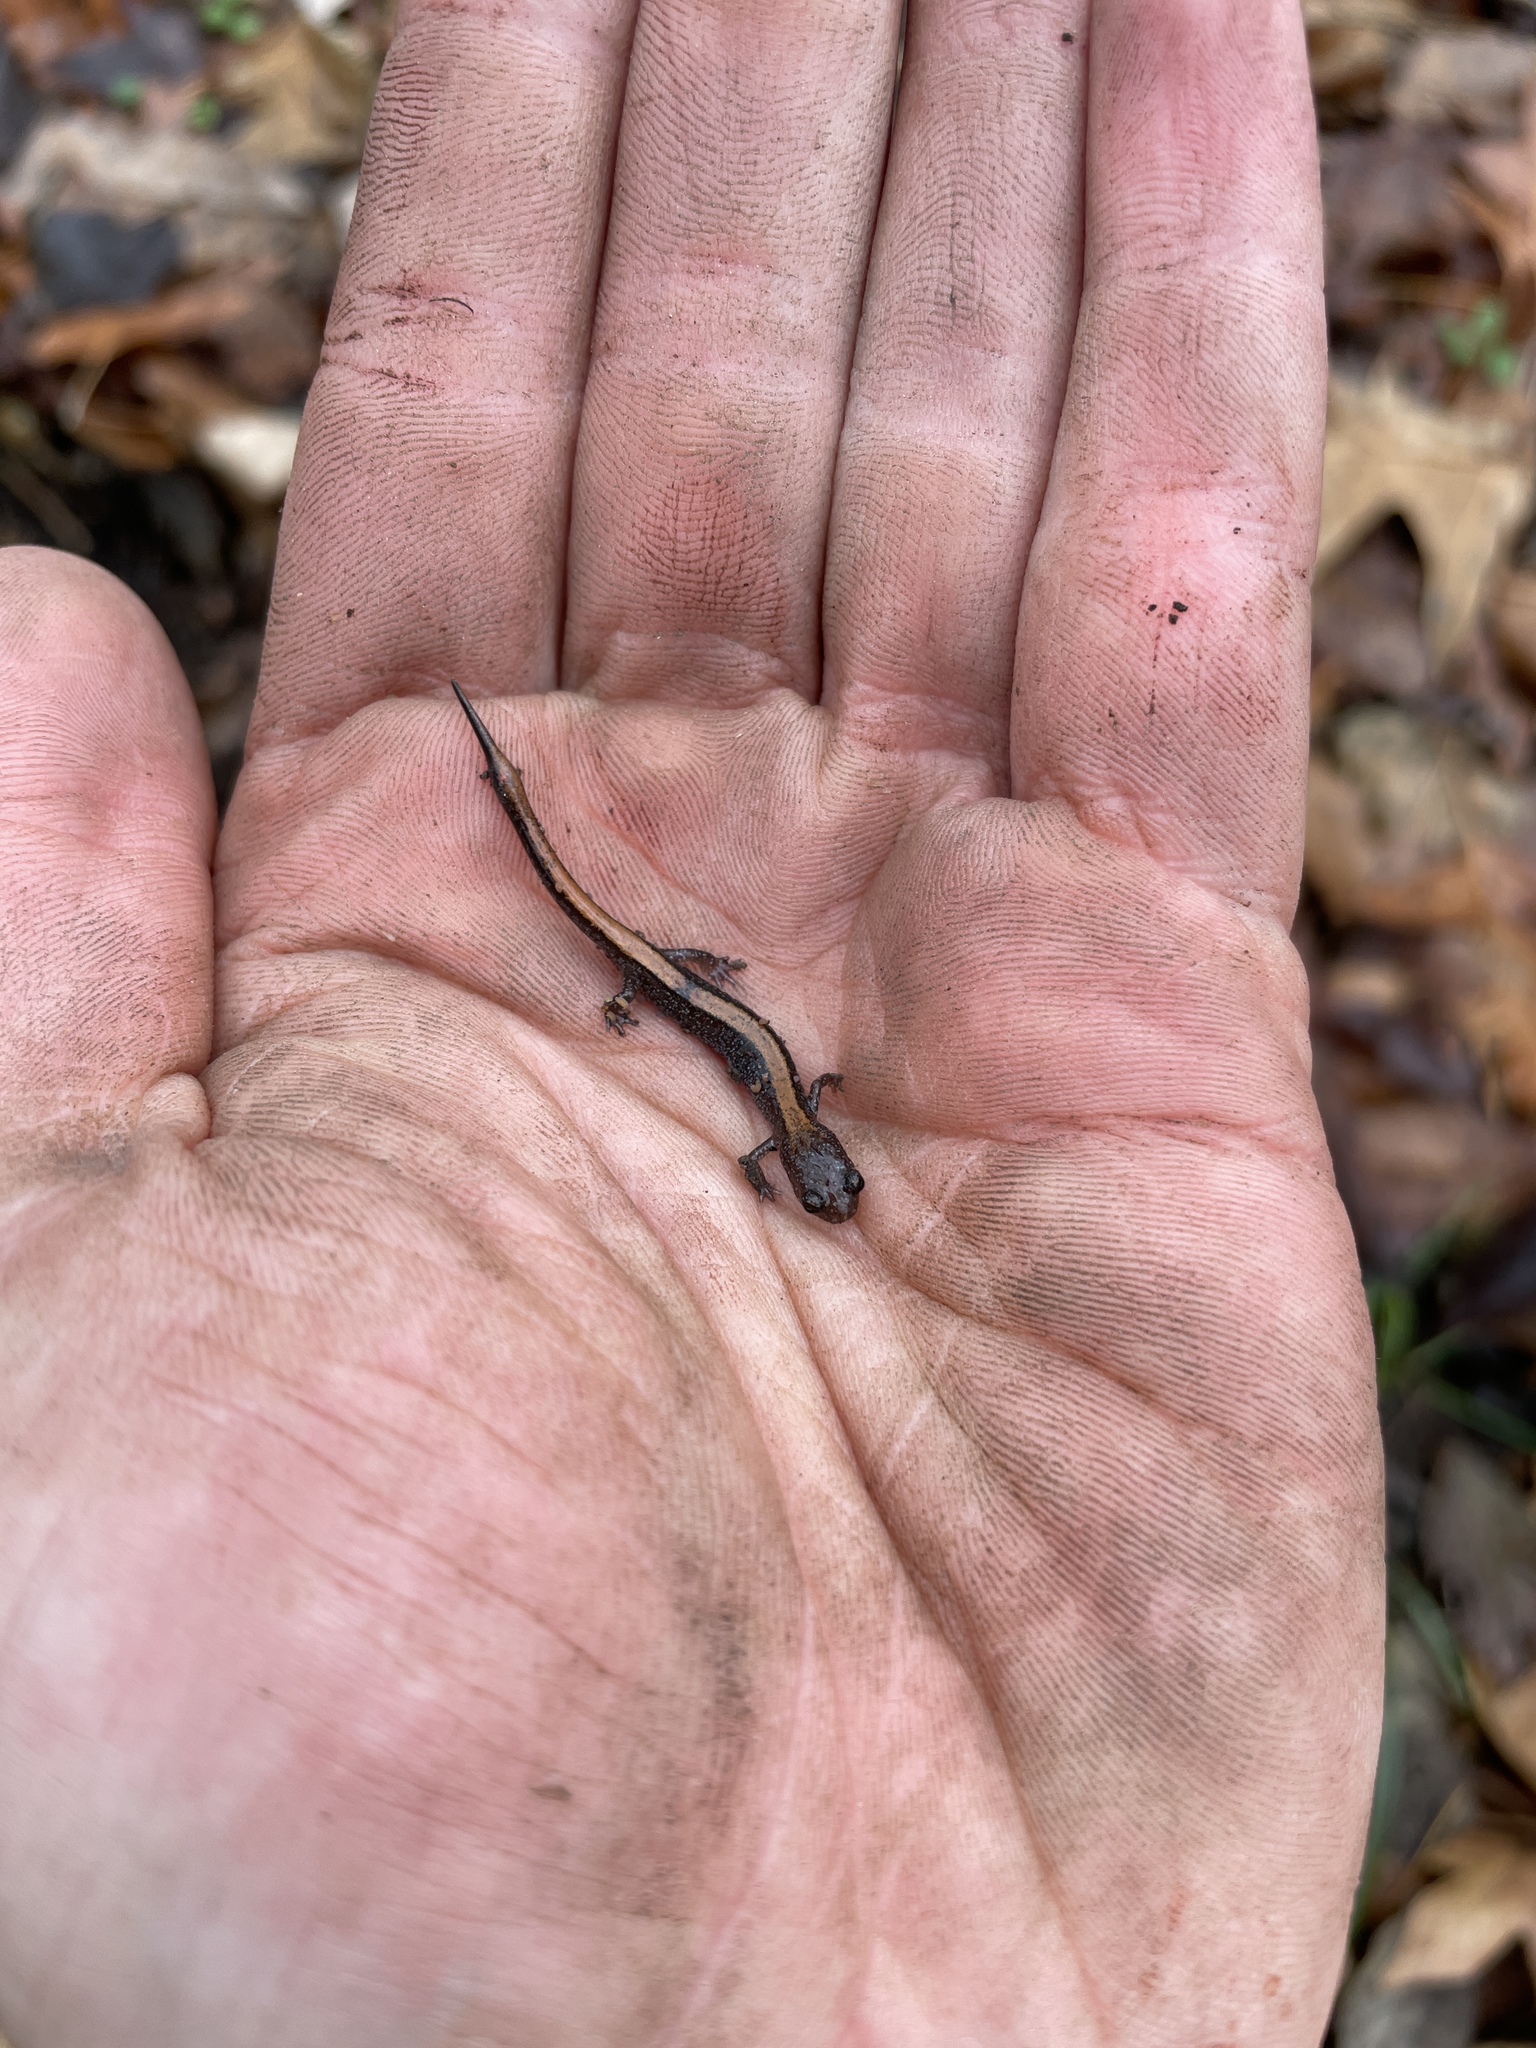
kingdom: Animalia
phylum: Chordata
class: Amphibia
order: Caudata
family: Plethodontidae
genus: Plethodon
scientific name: Plethodon dorsalis
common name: Northern zigzag salamander
